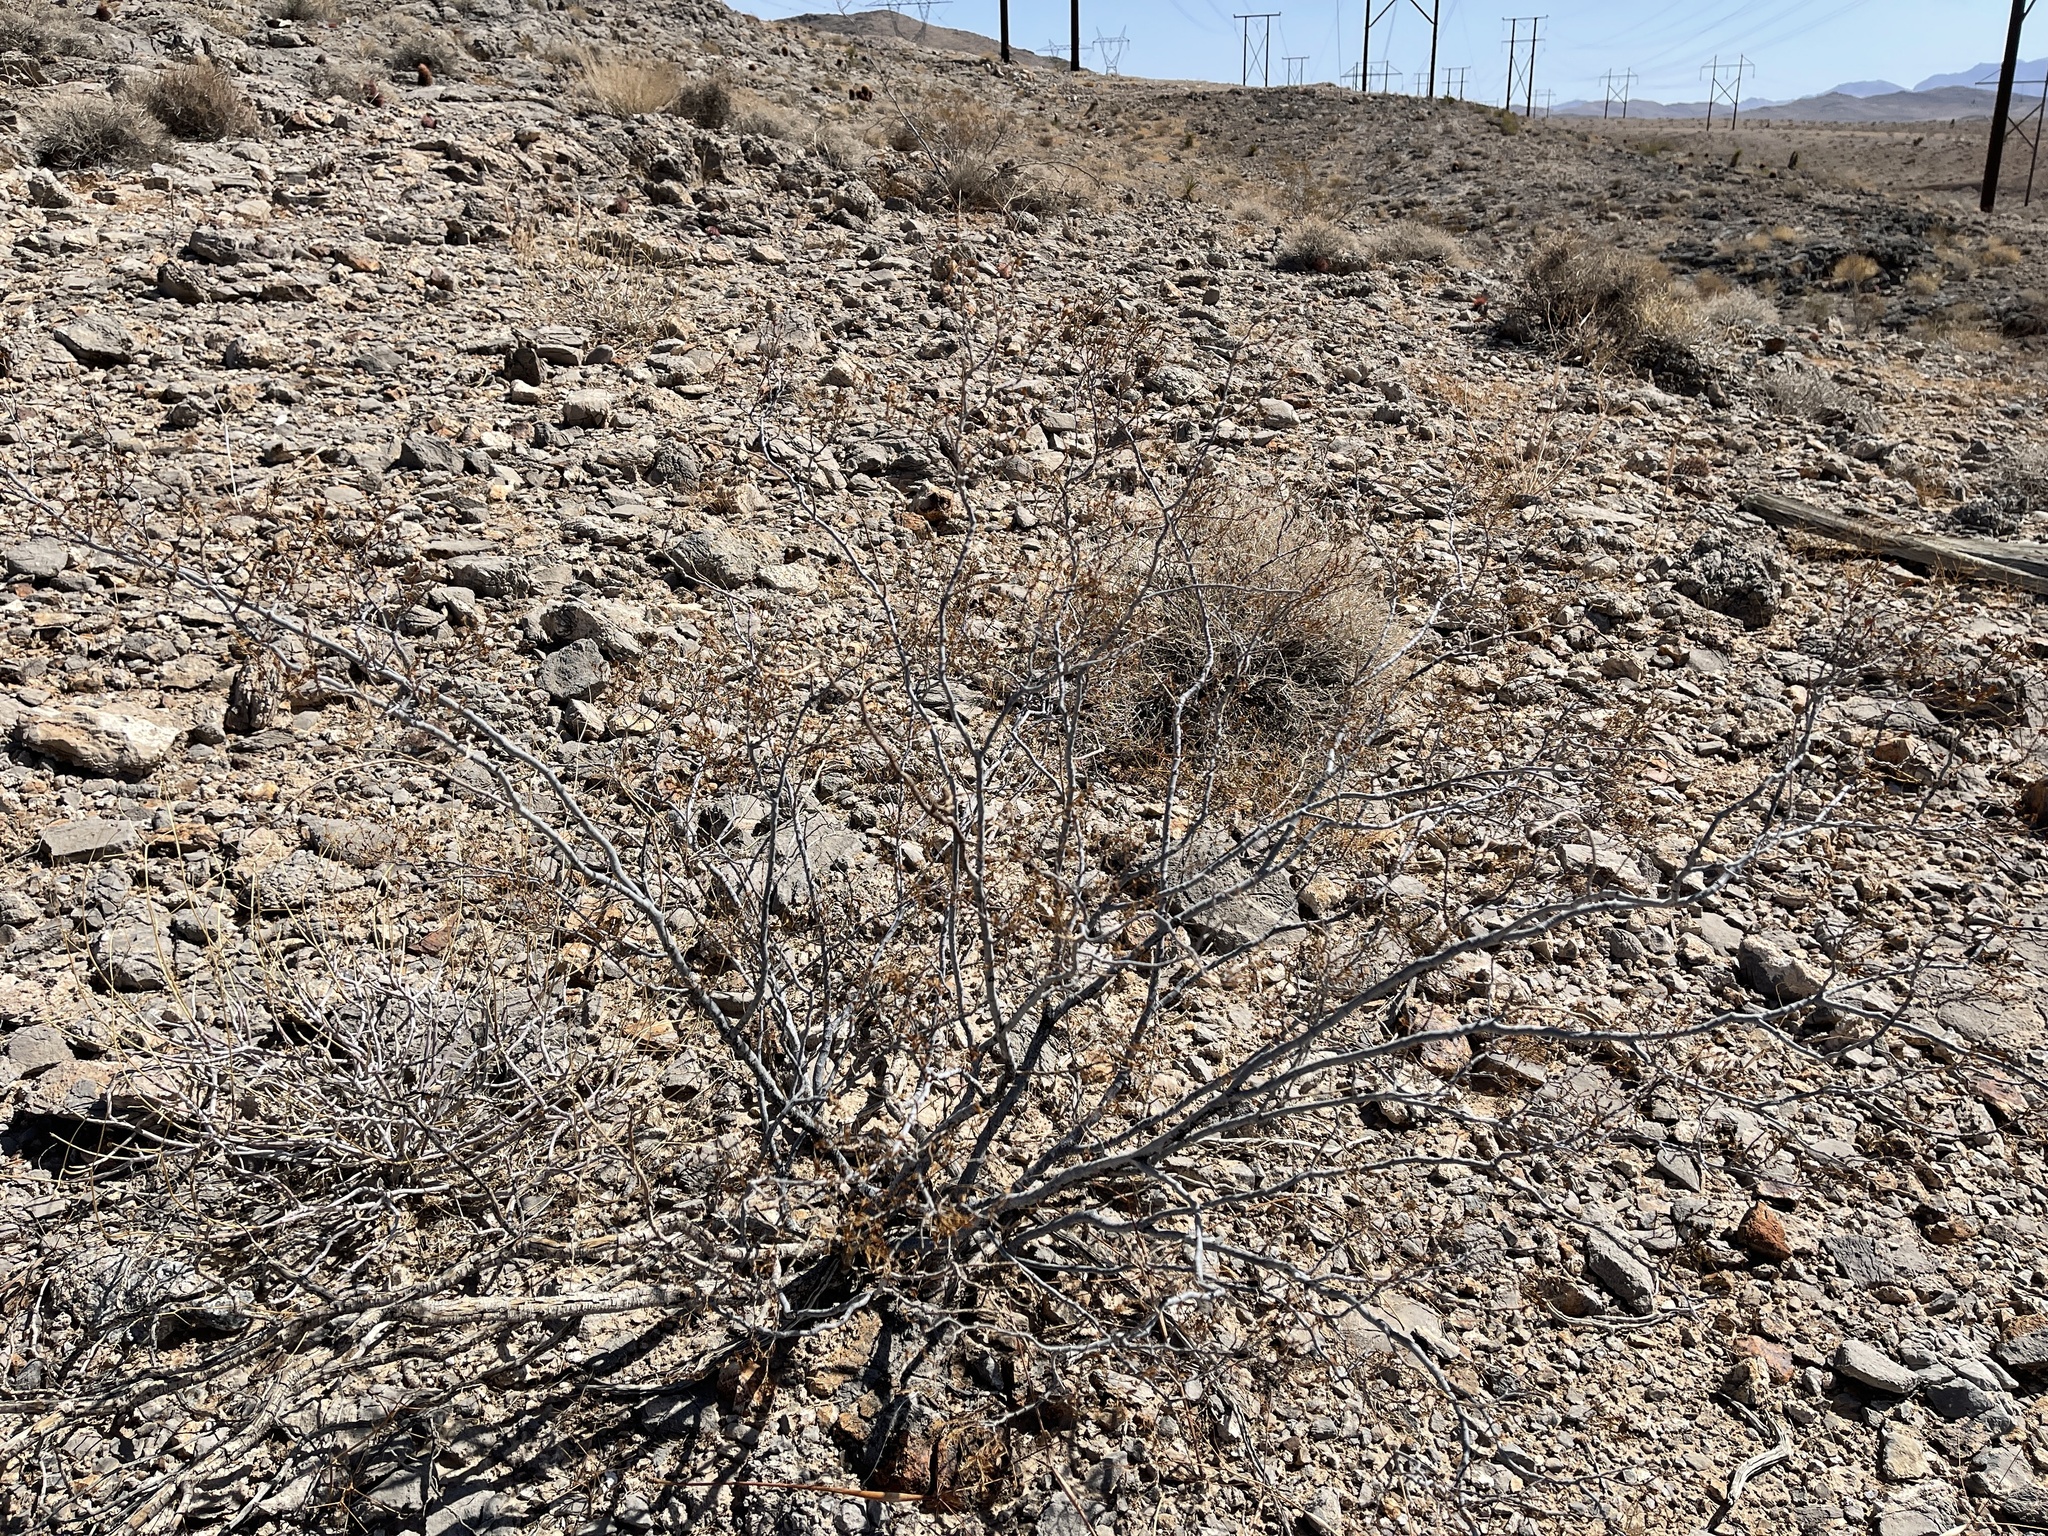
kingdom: Plantae
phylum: Tracheophyta
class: Magnoliopsida
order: Zygophyllales
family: Zygophyllaceae
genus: Larrea
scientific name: Larrea tridentata
